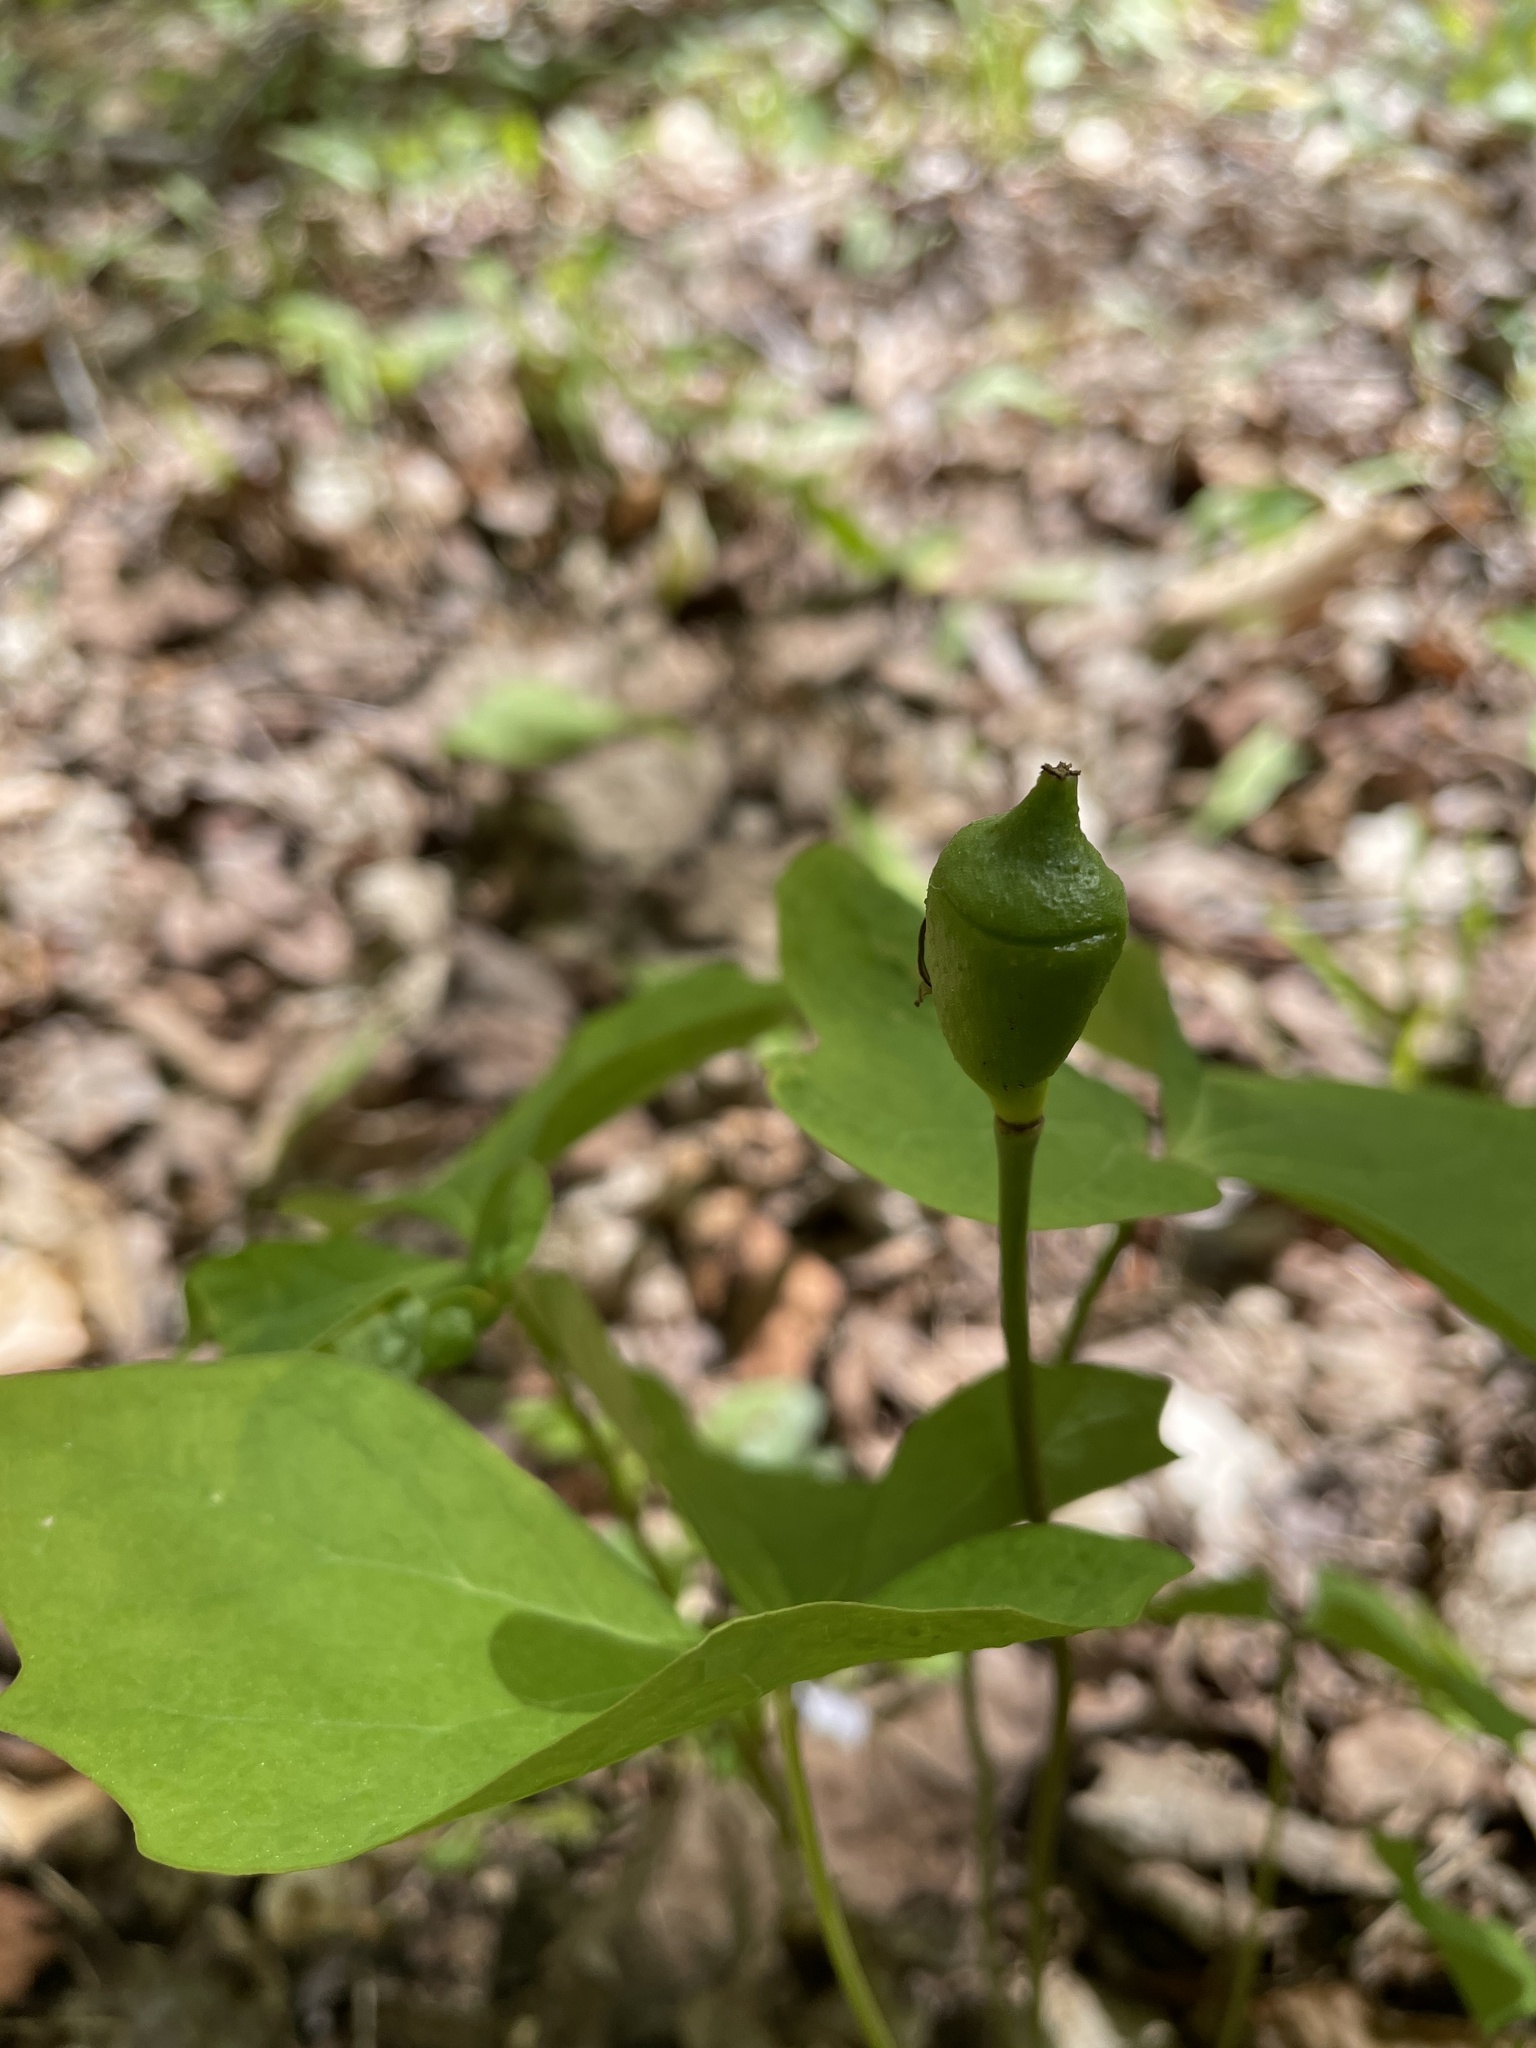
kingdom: Plantae
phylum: Tracheophyta
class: Magnoliopsida
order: Ranunculales
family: Berberidaceae
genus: Jeffersonia
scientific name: Jeffersonia diphylla
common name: Rheumatism-root
